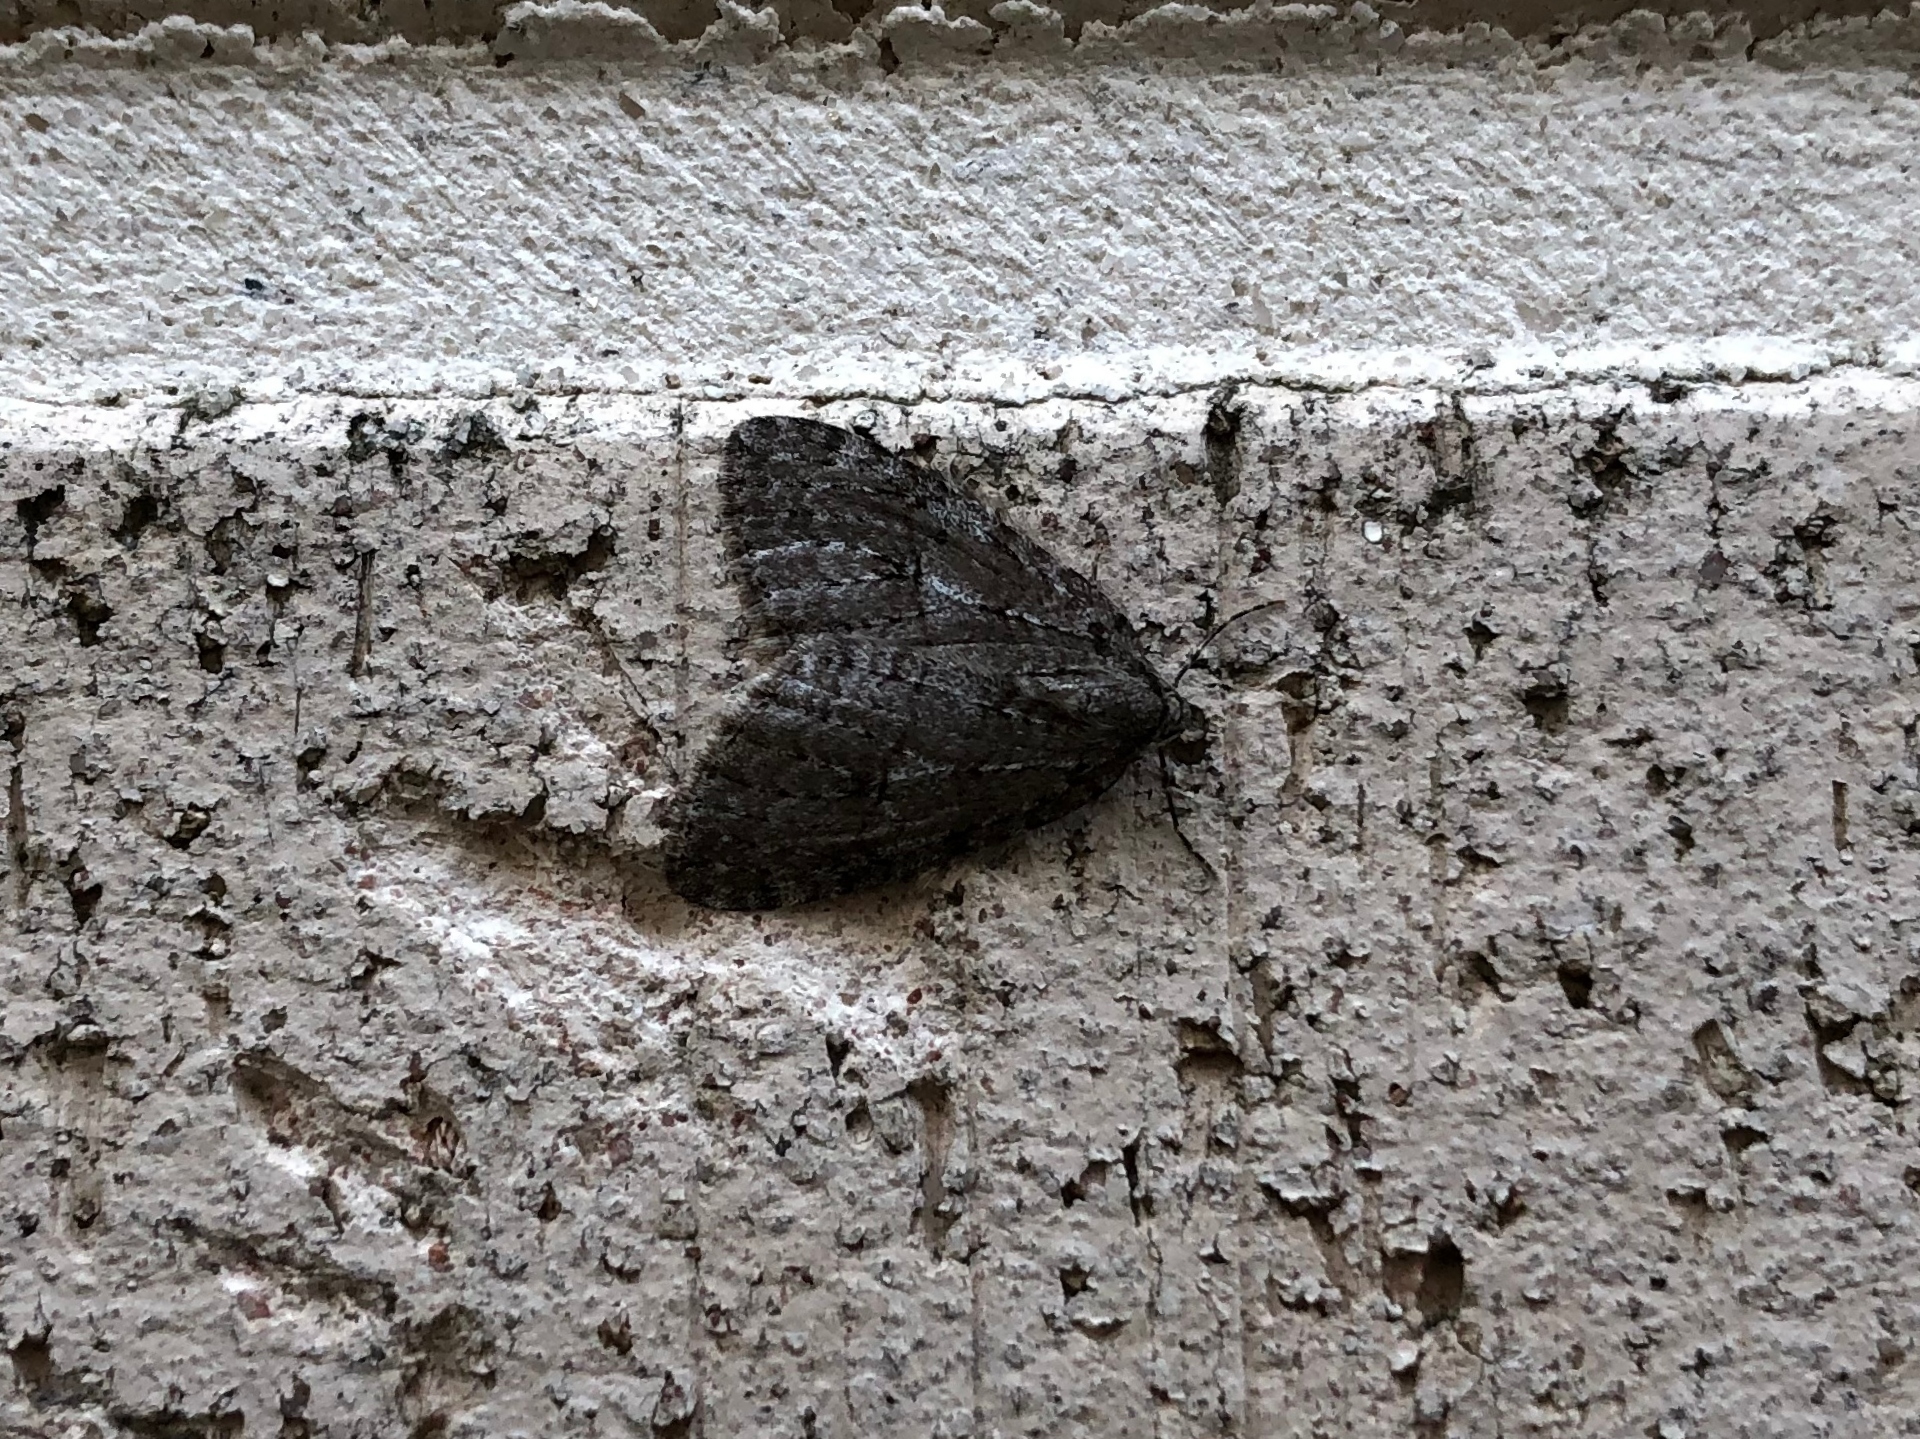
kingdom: Animalia
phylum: Arthropoda
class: Insecta
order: Lepidoptera
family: Geometridae
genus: Epirrita
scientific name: Epirrita autumnata
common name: Autumnal moth
